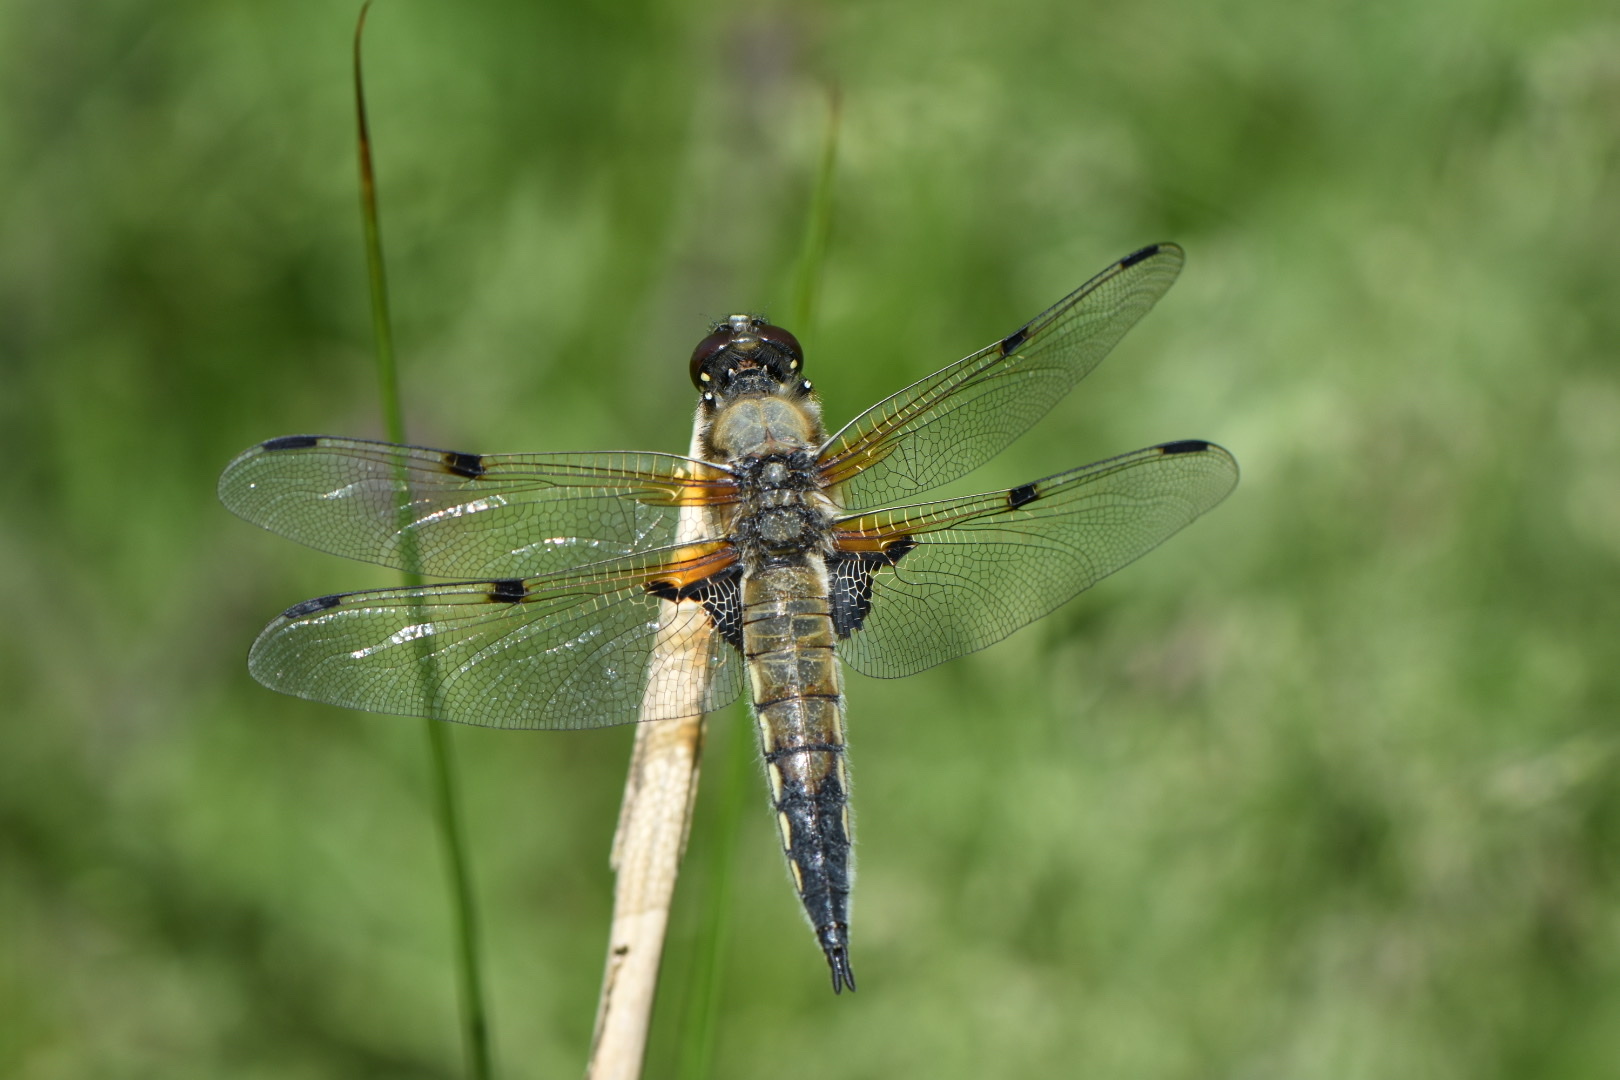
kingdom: Animalia
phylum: Arthropoda
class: Insecta
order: Odonata
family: Libellulidae
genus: Libellula
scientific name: Libellula quadrimaculata
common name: Four-spotted chaser
